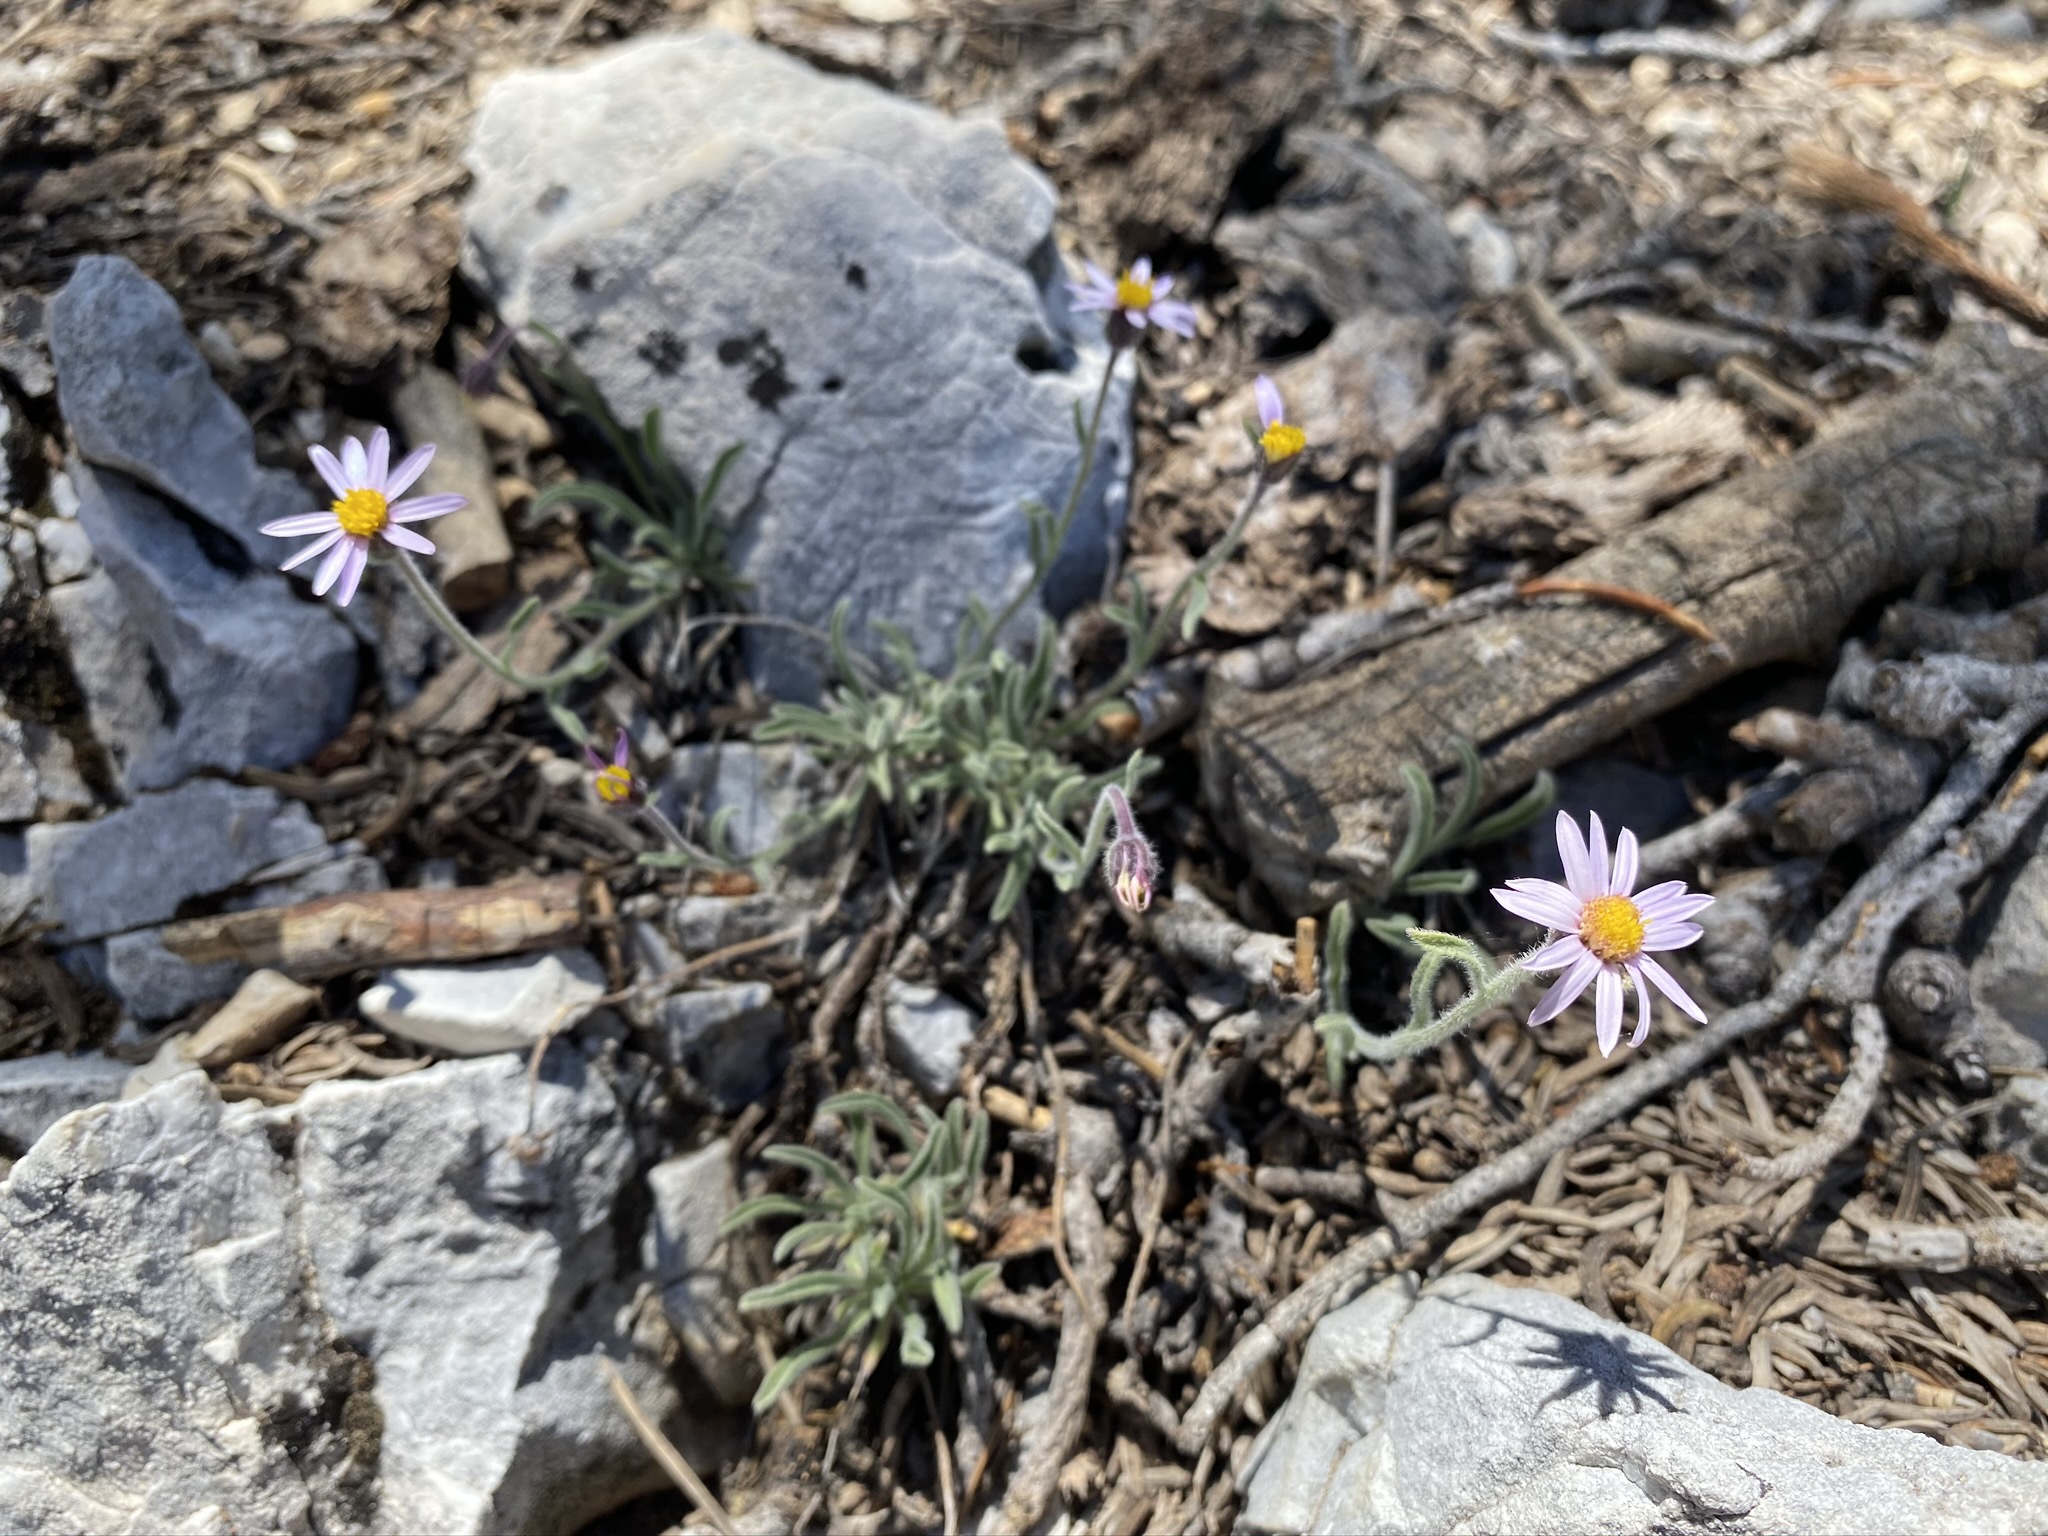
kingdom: Plantae
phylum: Tracheophyta
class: Magnoliopsida
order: Asterales
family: Asteraceae
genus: Erigeron
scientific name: Erigeron clokeyi
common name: Clokey's fleabane
